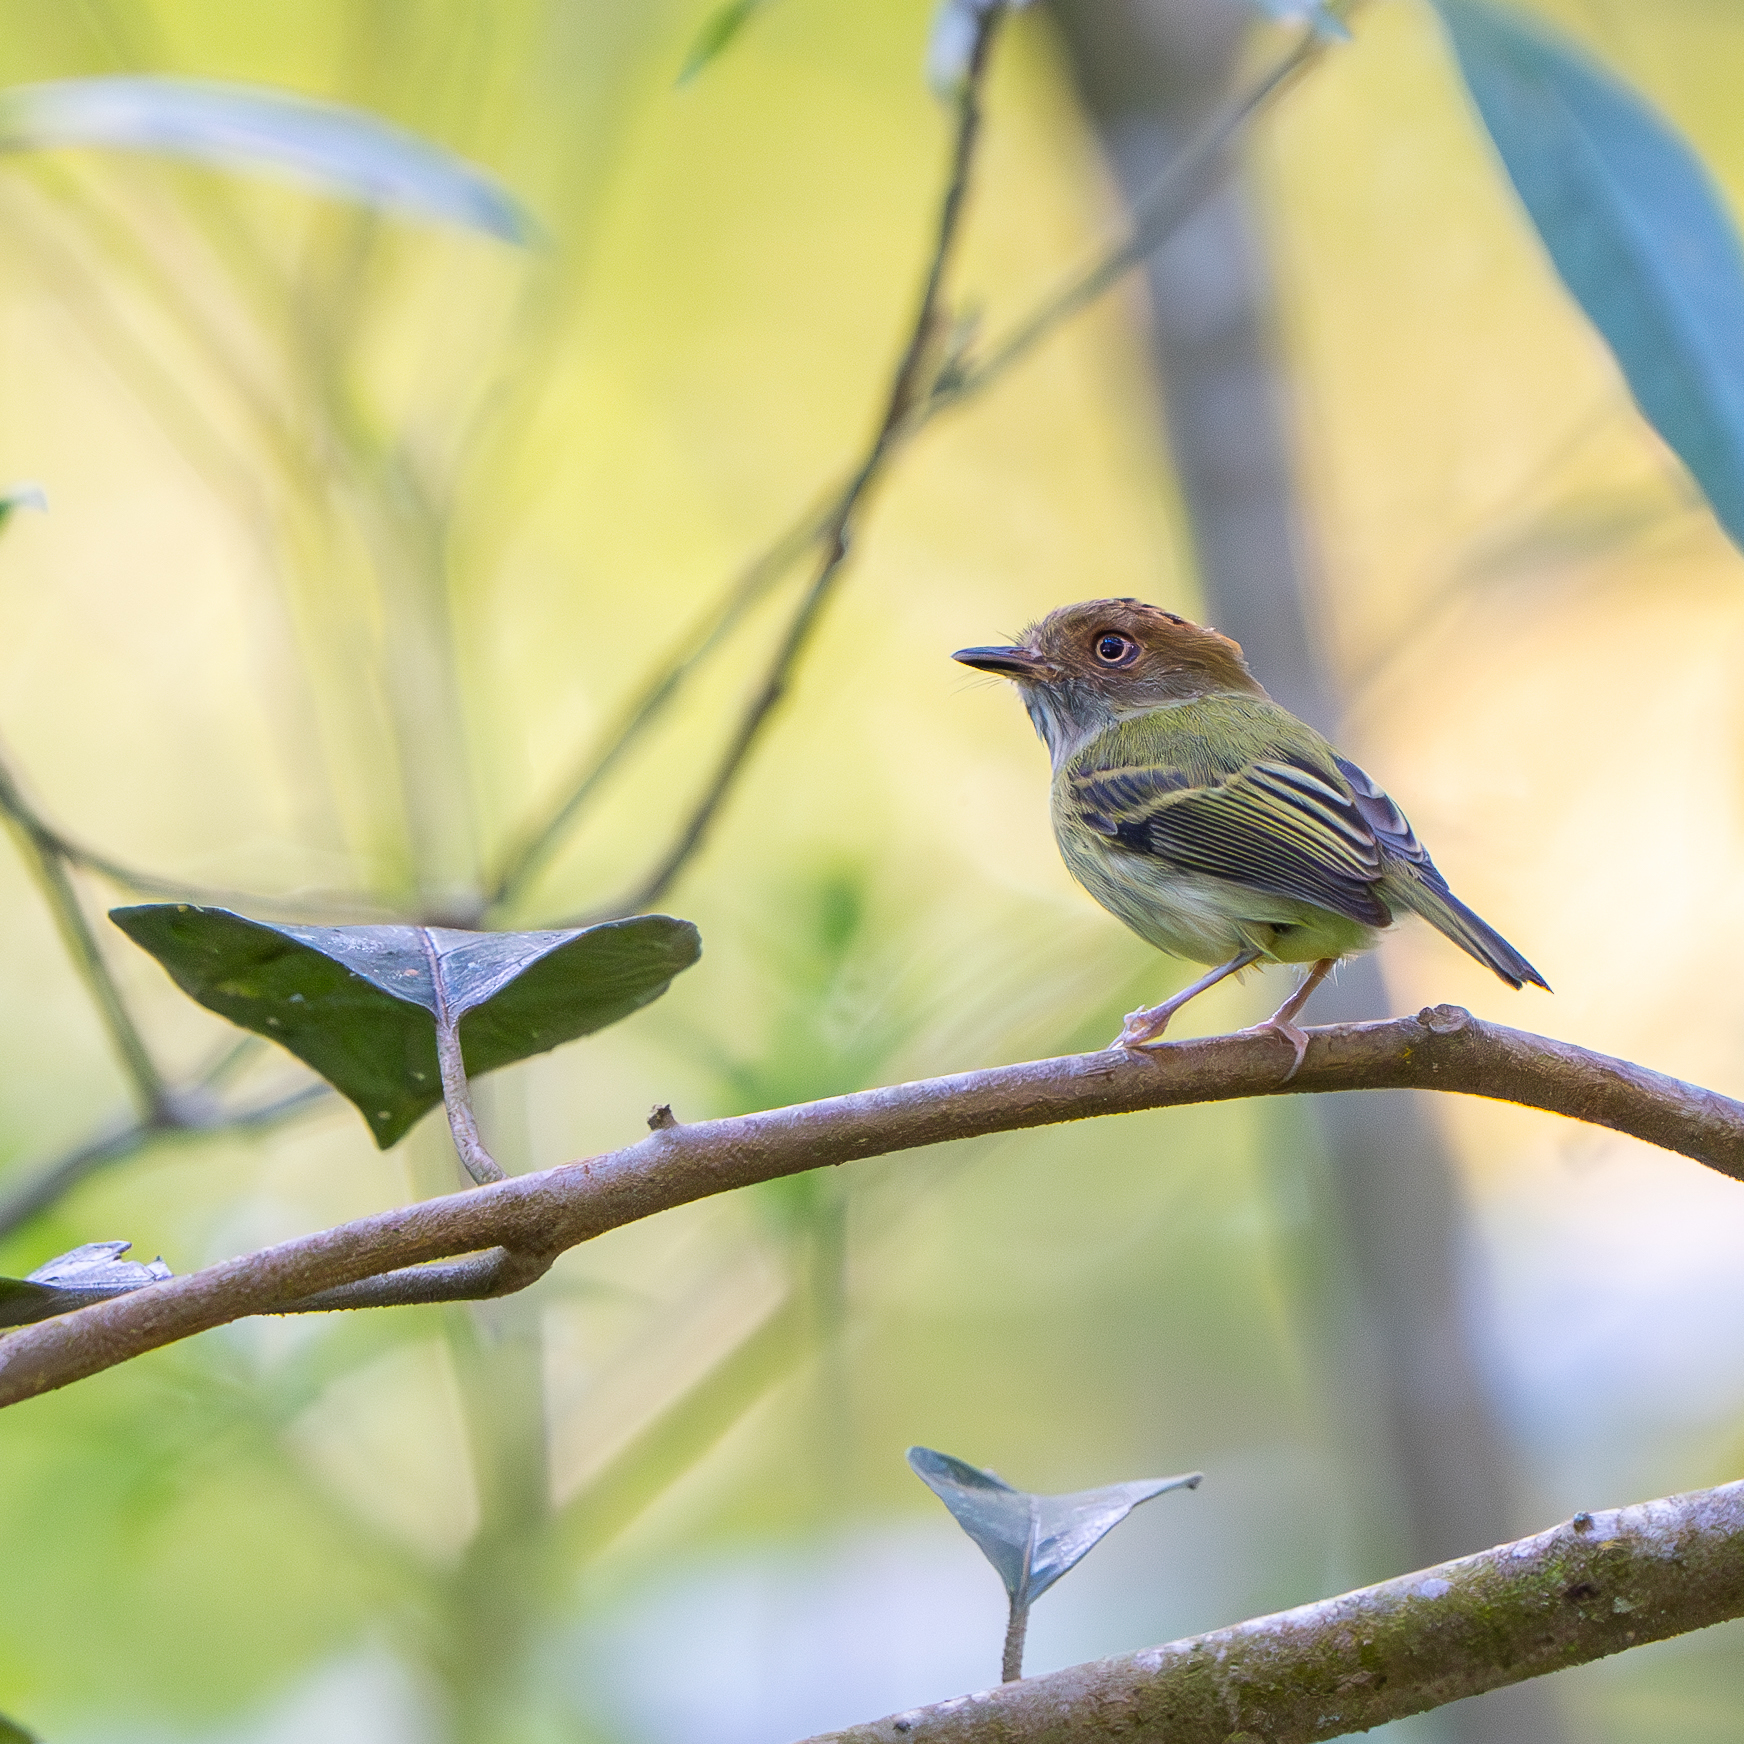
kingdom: Animalia
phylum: Chordata
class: Aves
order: Passeriformes
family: Tyrannidae
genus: Lophotriccus
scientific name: Lophotriccus pileatus
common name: Scale-crested pygmy-tyrant
